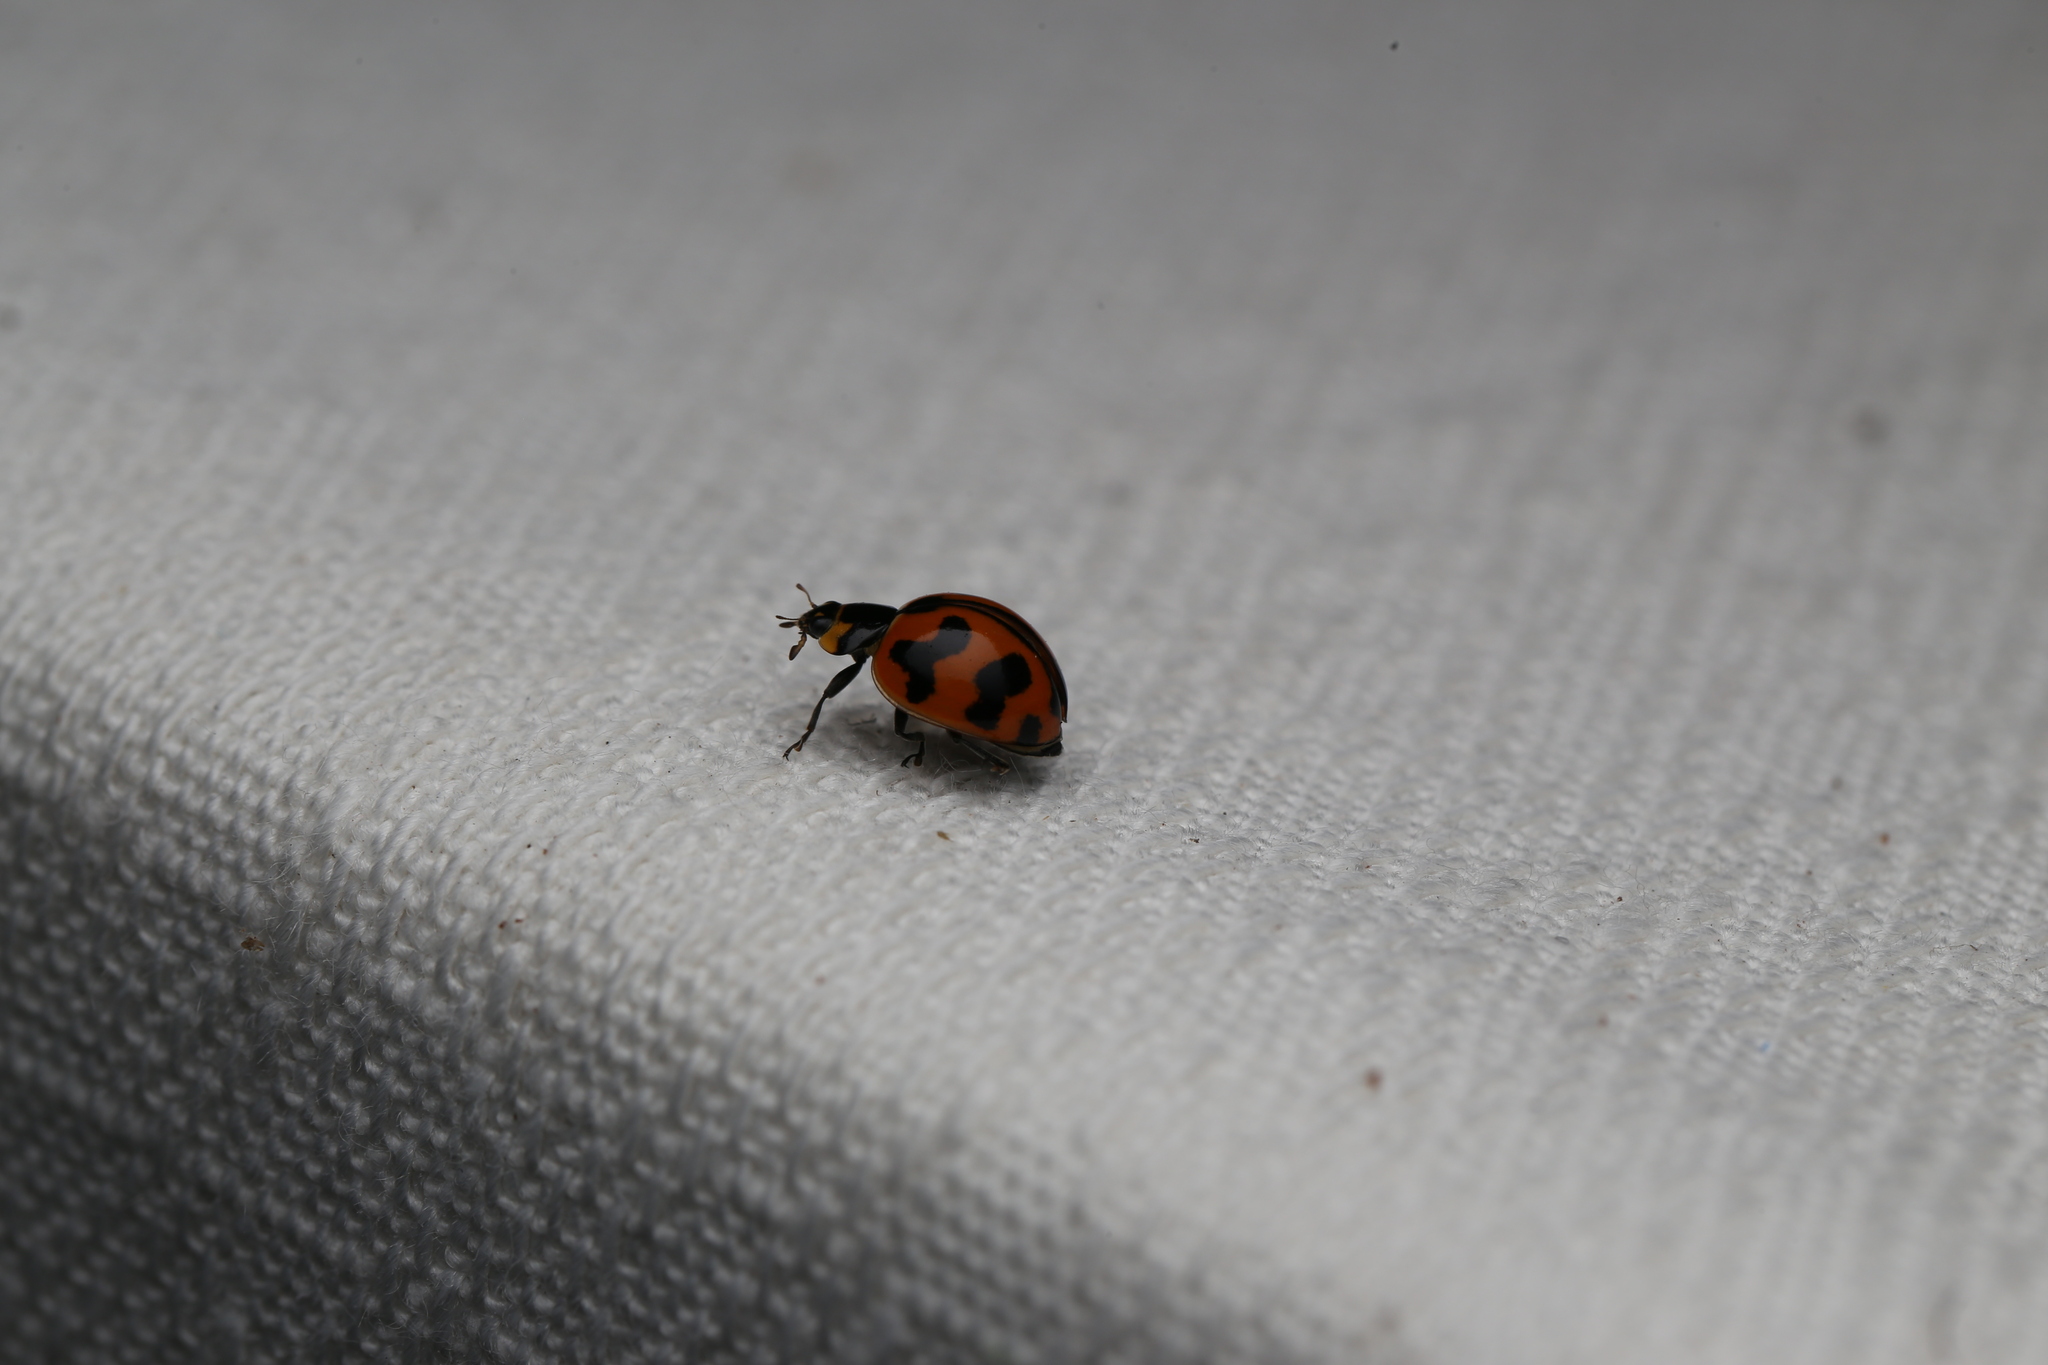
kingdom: Animalia
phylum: Arthropoda
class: Insecta
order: Coleoptera
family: Coccinellidae
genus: Coccinella
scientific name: Coccinella transversalis
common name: Transverse lady beetle
